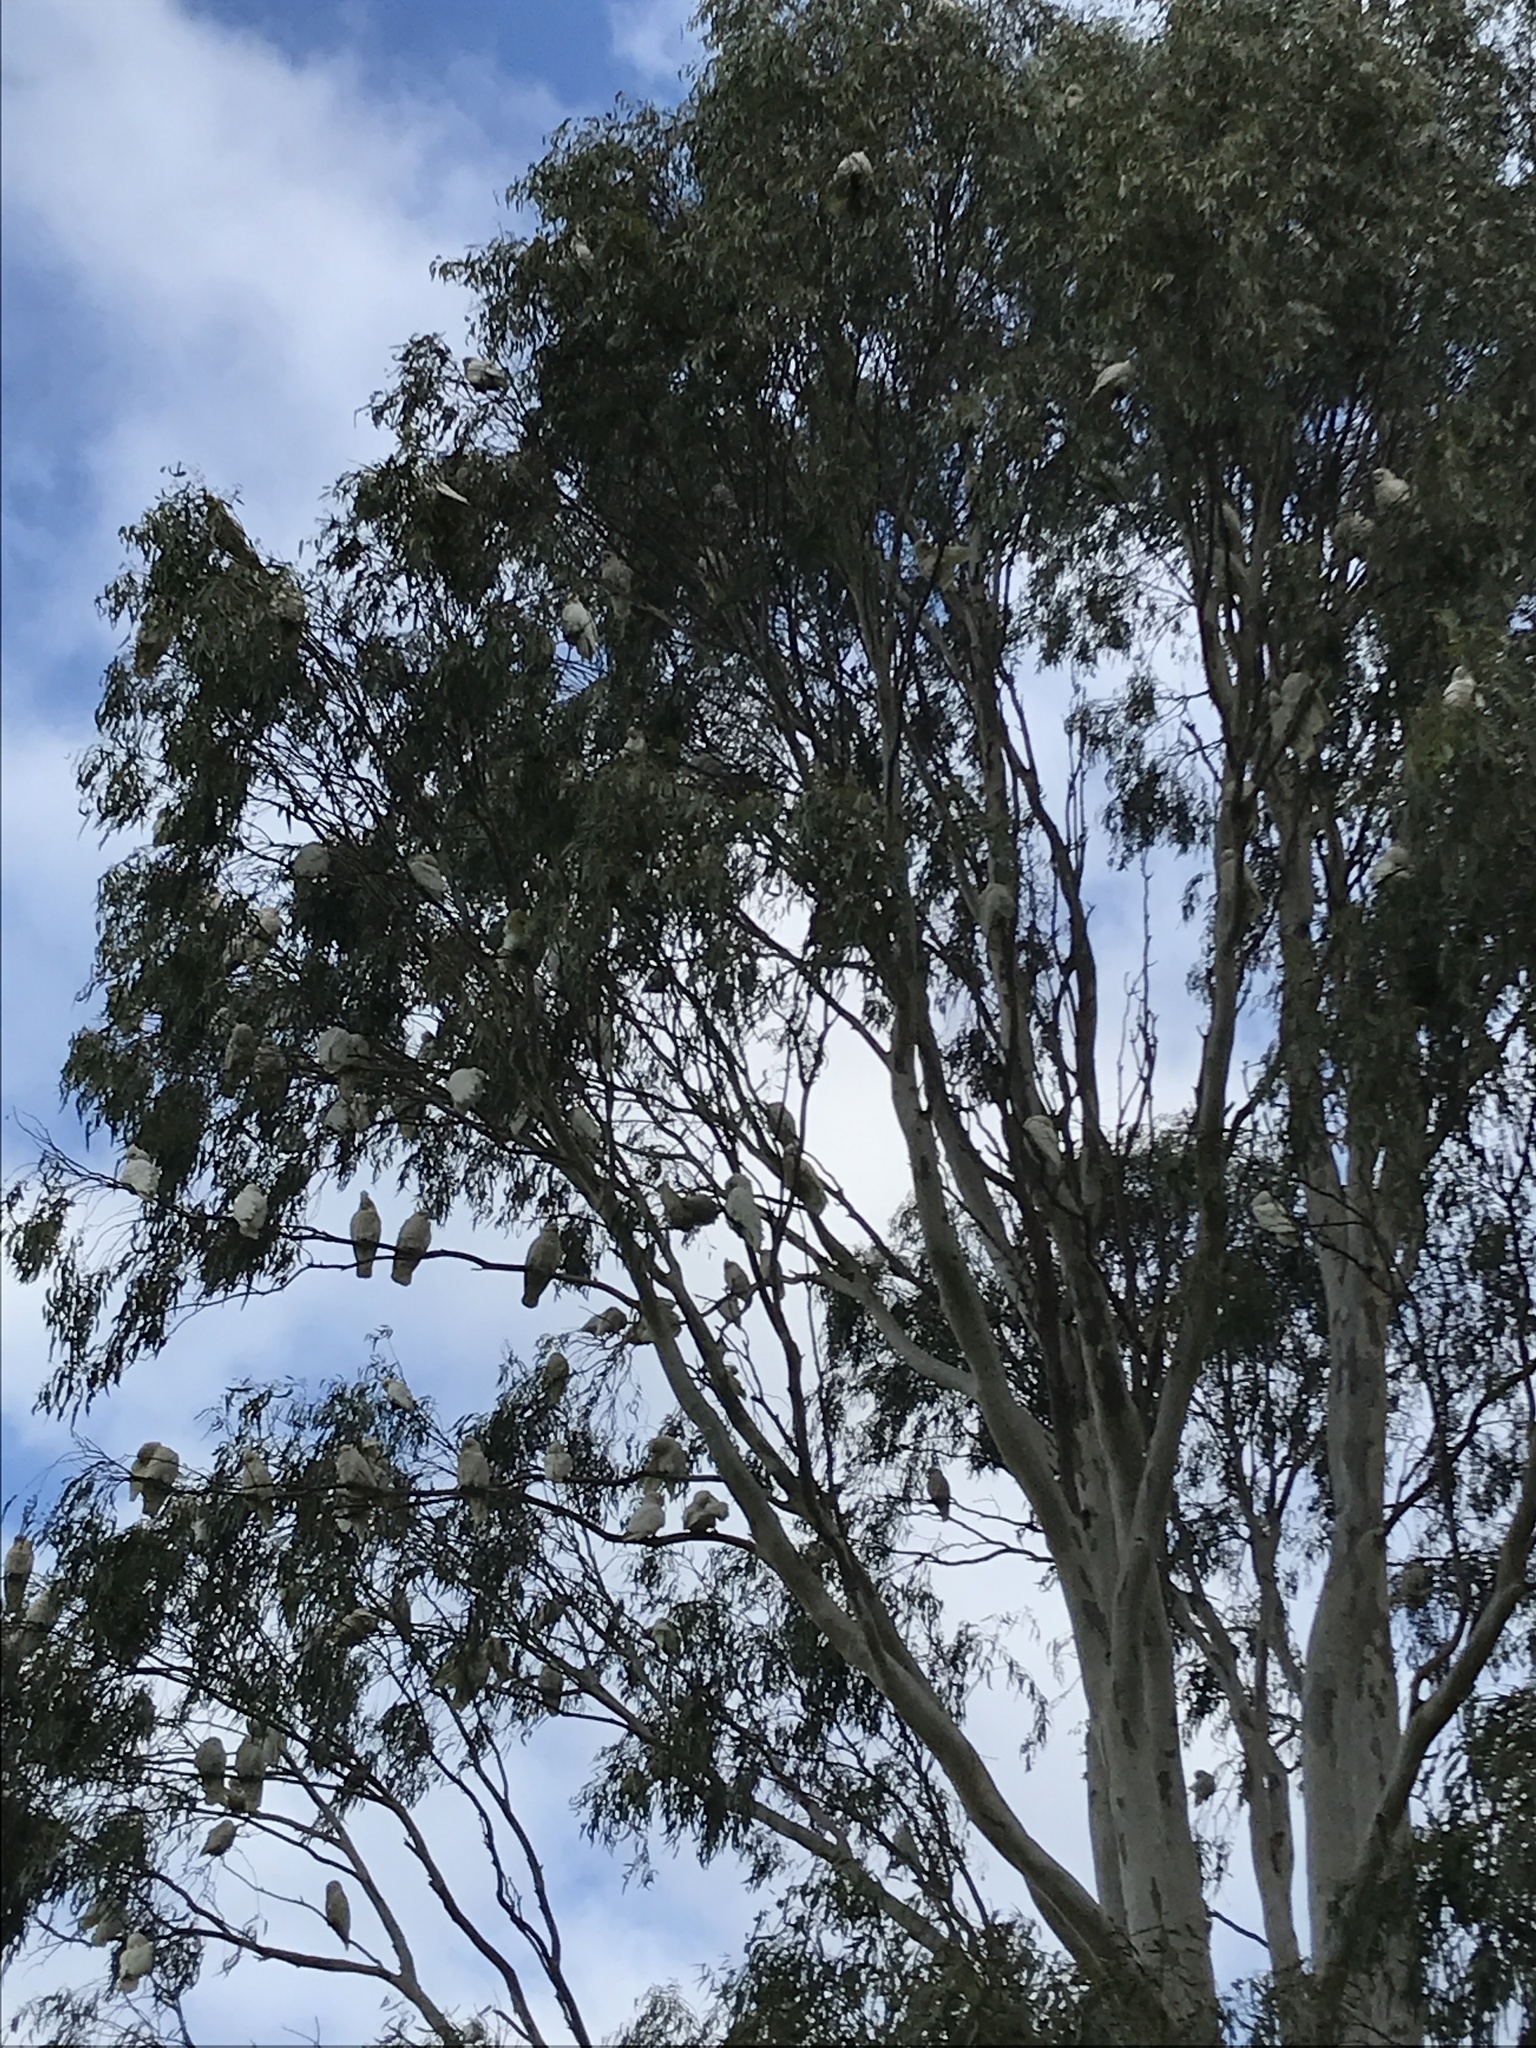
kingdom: Animalia
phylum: Chordata
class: Aves
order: Psittaciformes
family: Psittacidae
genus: Cacatua
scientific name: Cacatua sanguinea
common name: Little corella
